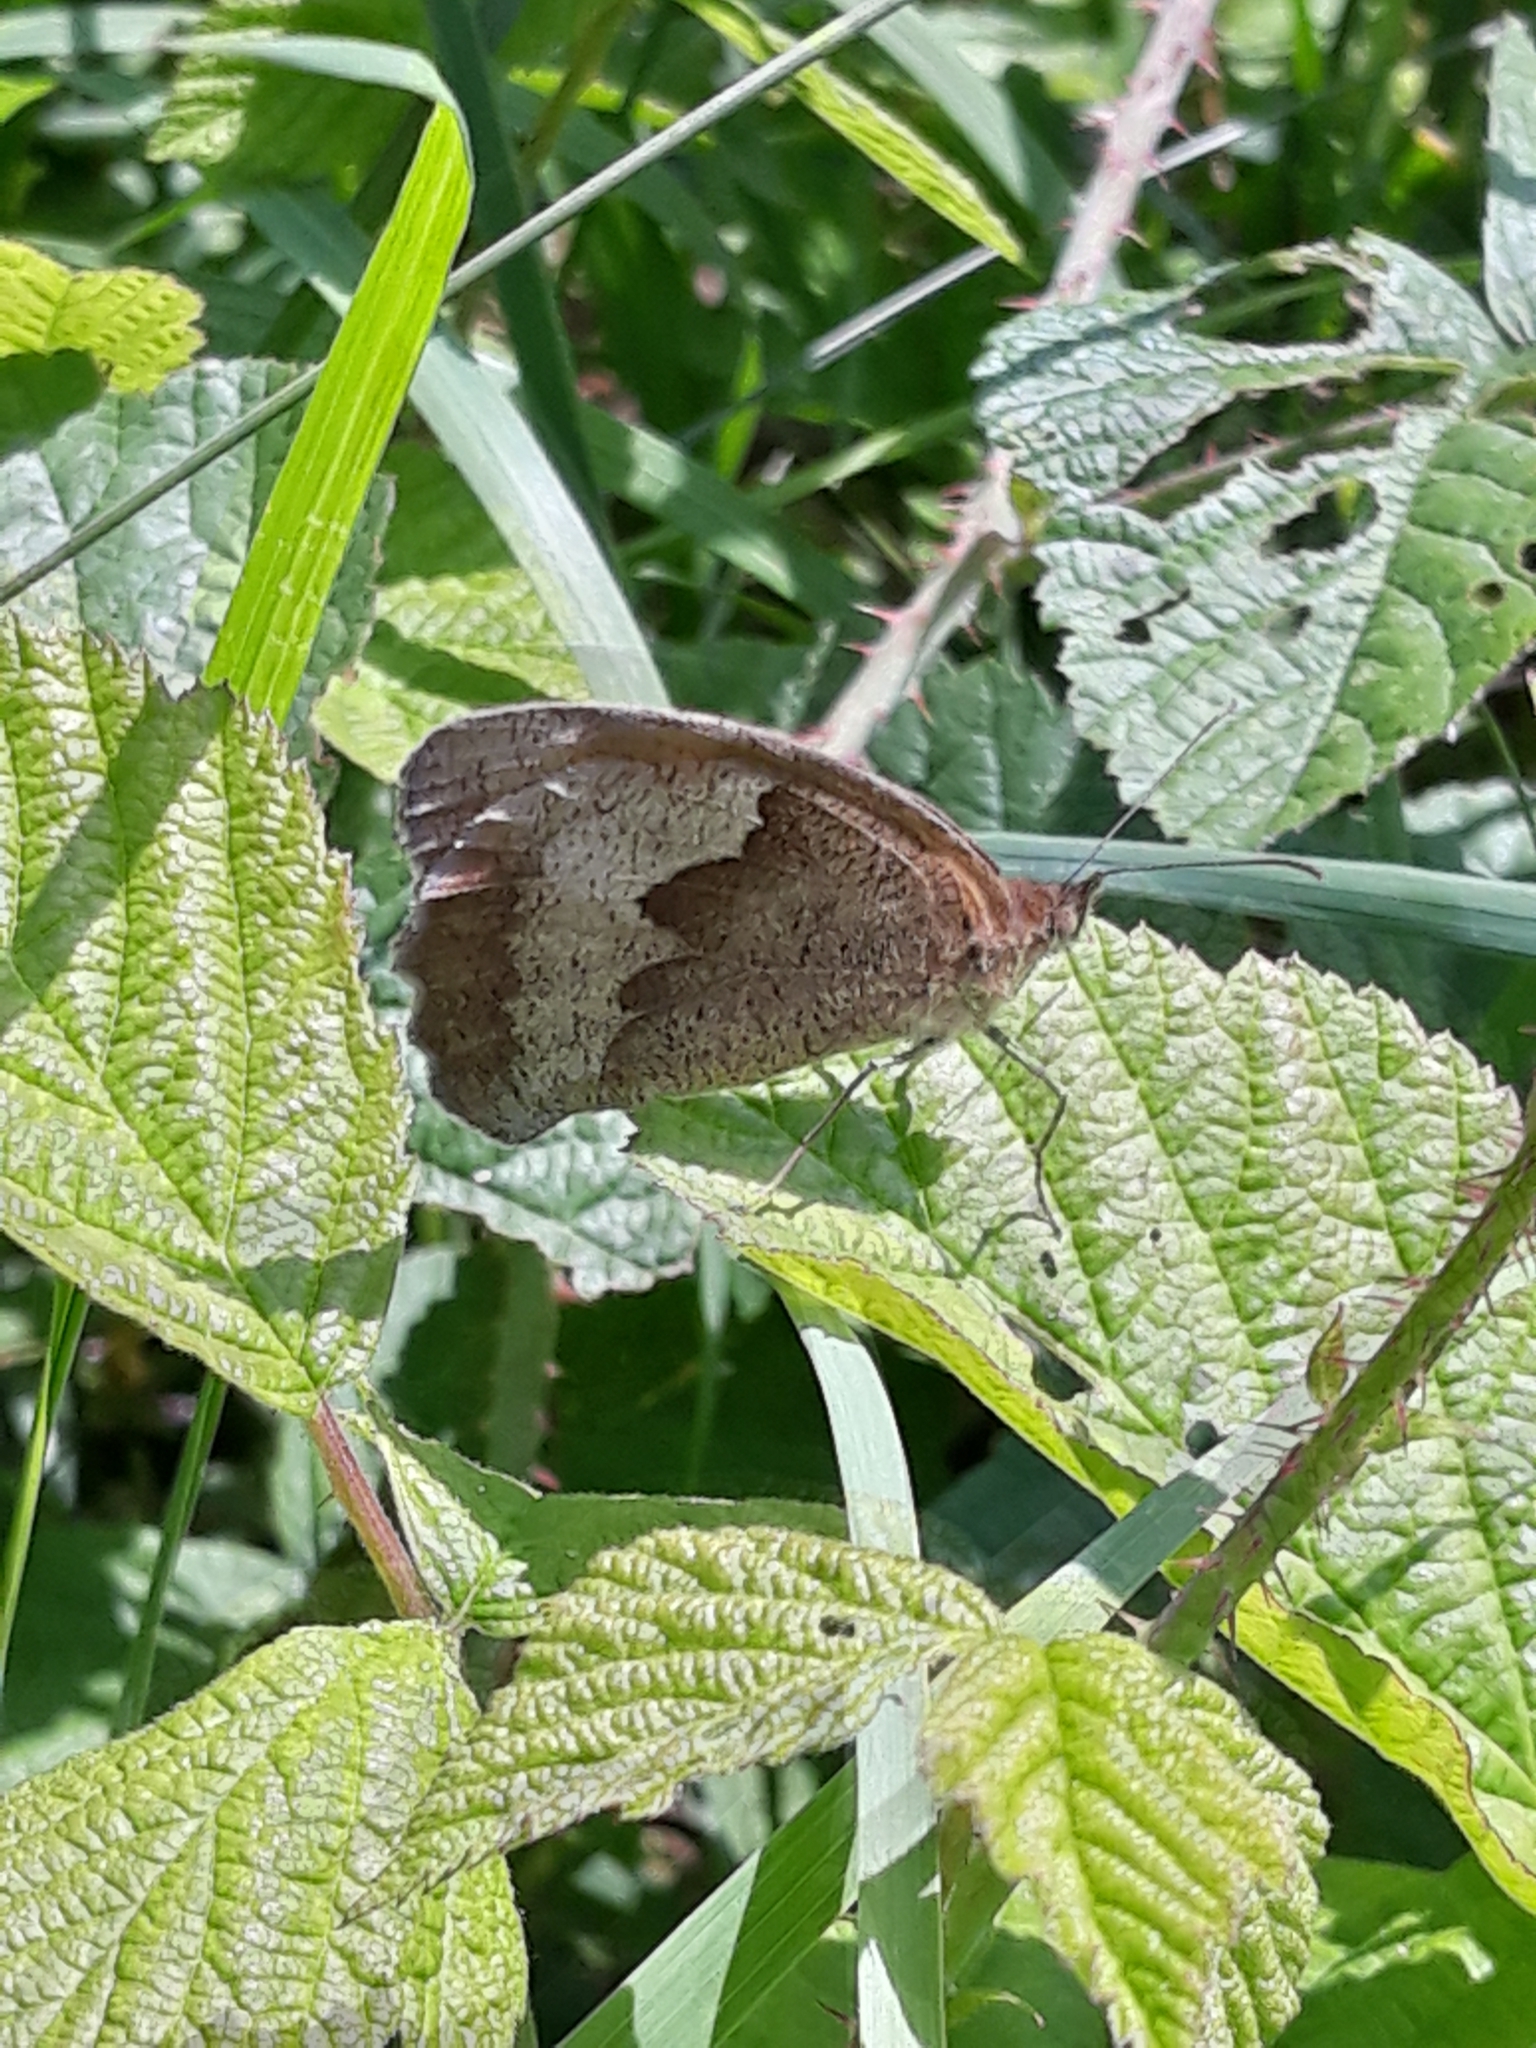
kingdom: Animalia
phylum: Arthropoda
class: Insecta
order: Lepidoptera
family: Nymphalidae
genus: Maniola
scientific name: Maniola jurtina
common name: Meadow brown
